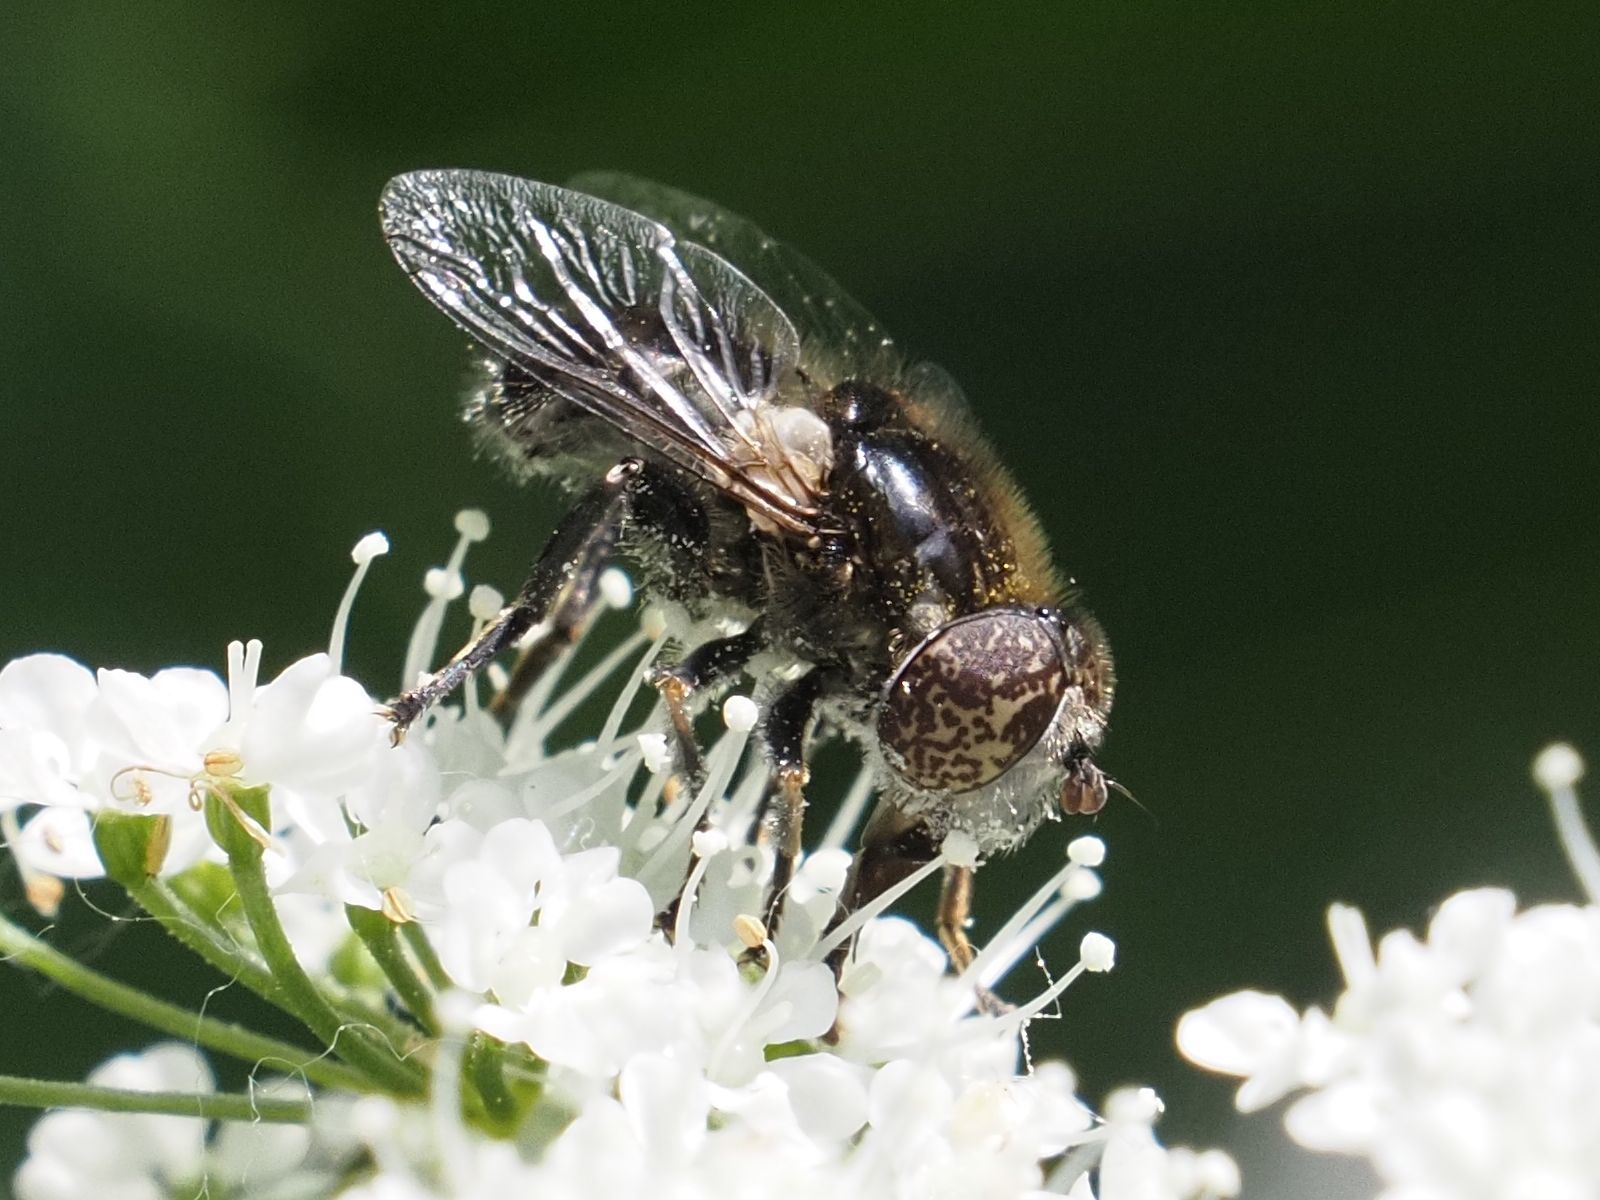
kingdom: Animalia
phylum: Arthropoda
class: Insecta
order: Diptera
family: Syrphidae
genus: Eristalinus
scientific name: Eristalinus sepulchralis
